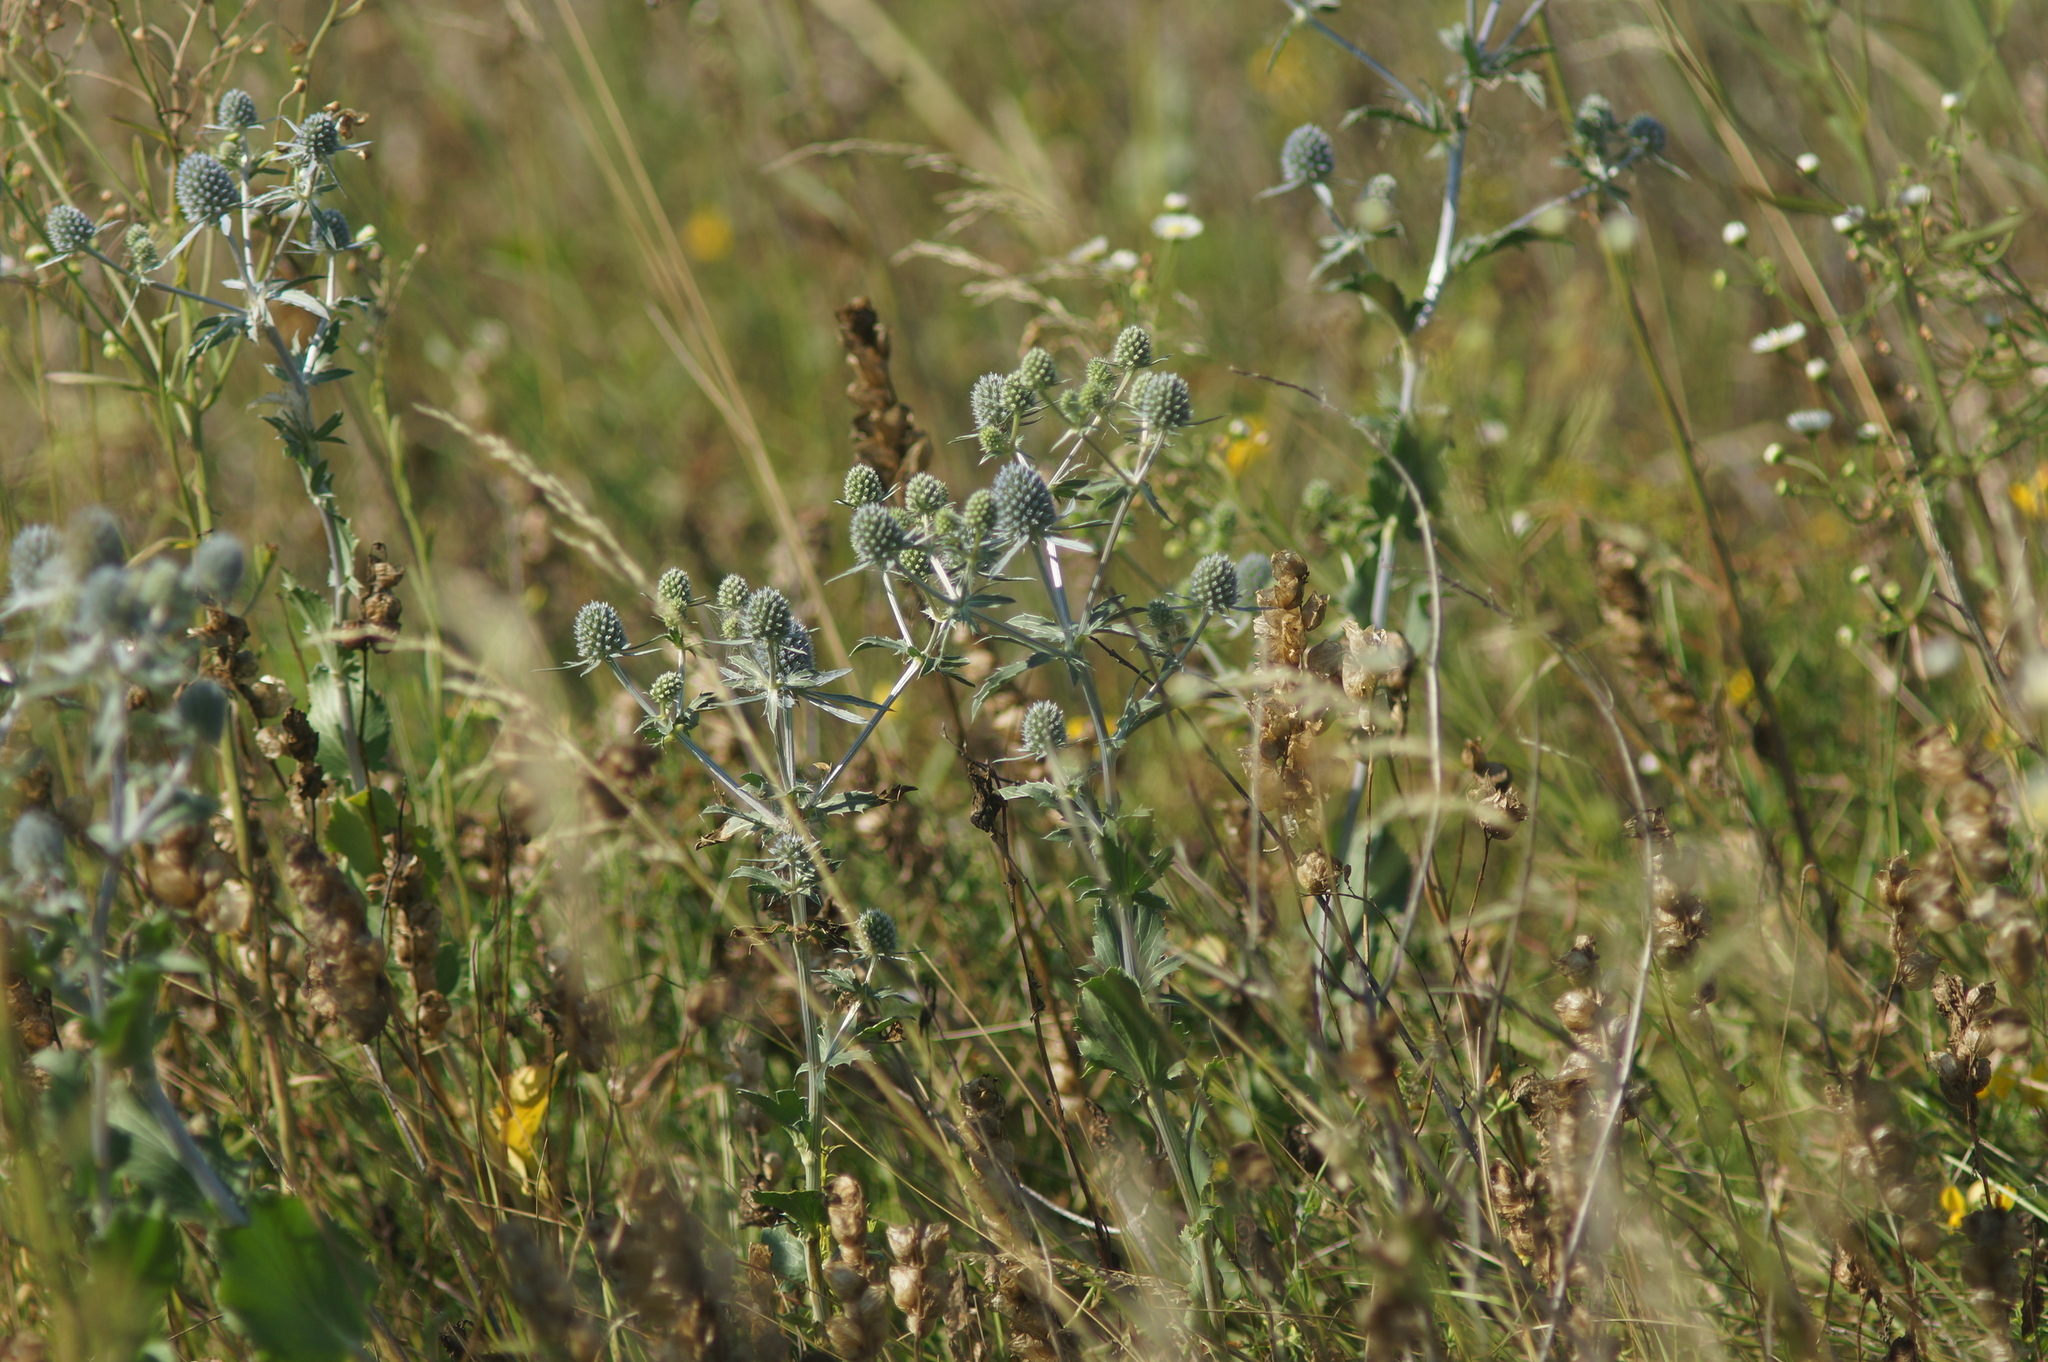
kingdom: Plantae
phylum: Tracheophyta
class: Magnoliopsida
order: Apiales
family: Apiaceae
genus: Eryngium
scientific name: Eryngium planum
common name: Blue eryngo
